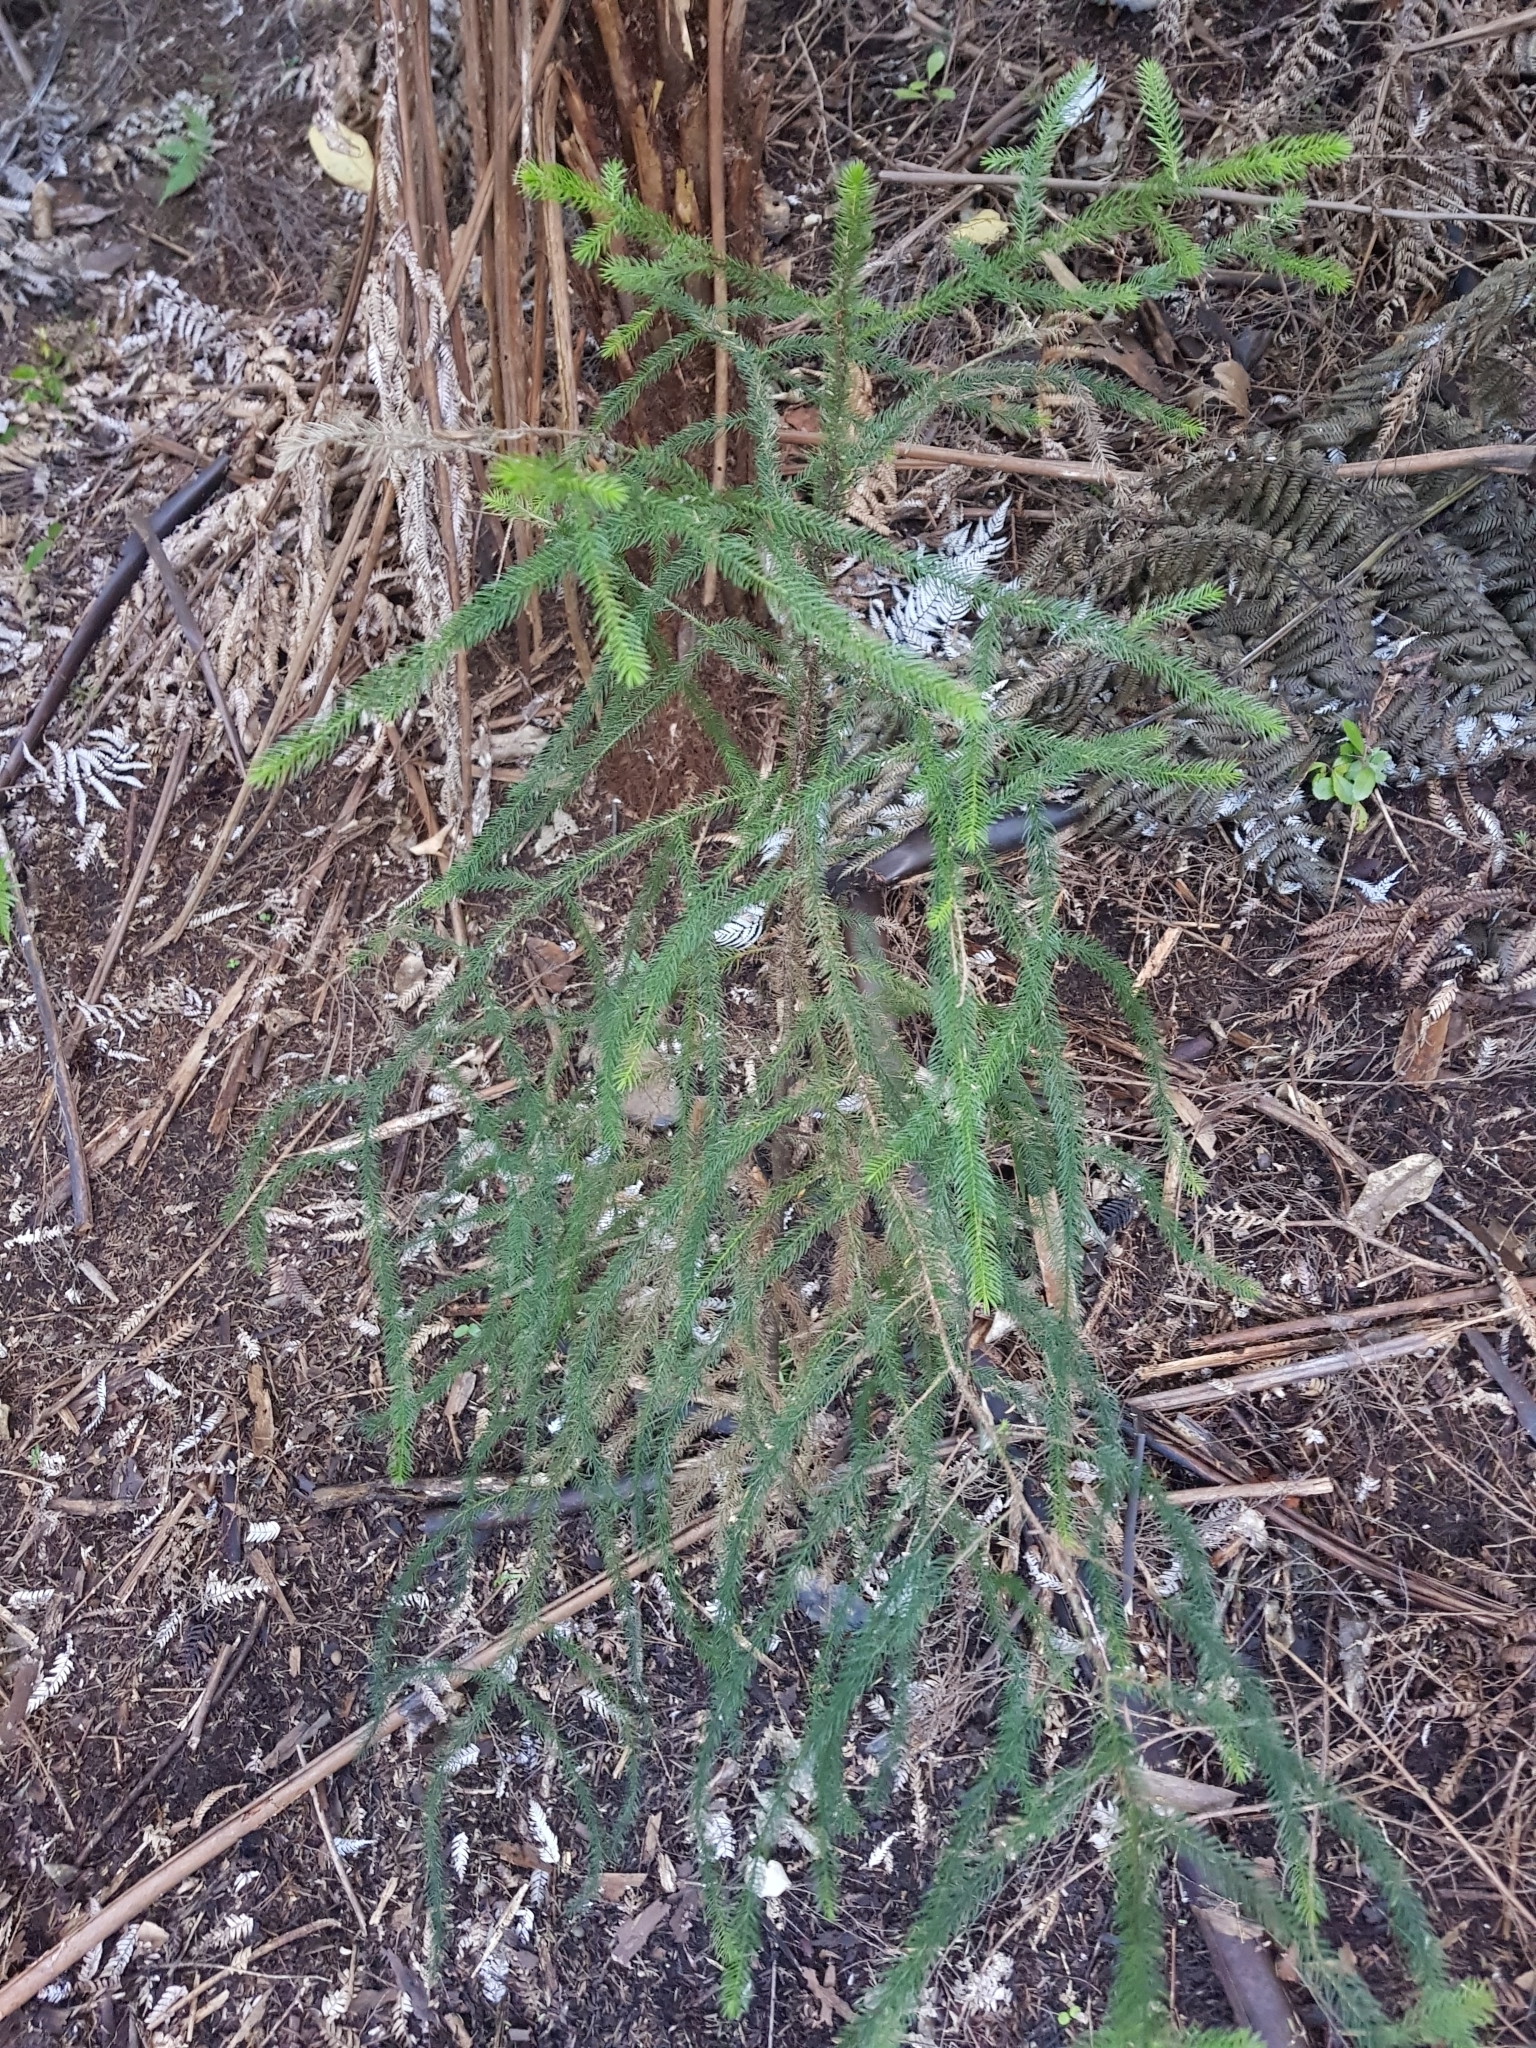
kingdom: Plantae
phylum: Tracheophyta
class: Pinopsida
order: Pinales
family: Podocarpaceae
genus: Dacrydium
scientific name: Dacrydium cupressinum
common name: Red pine
